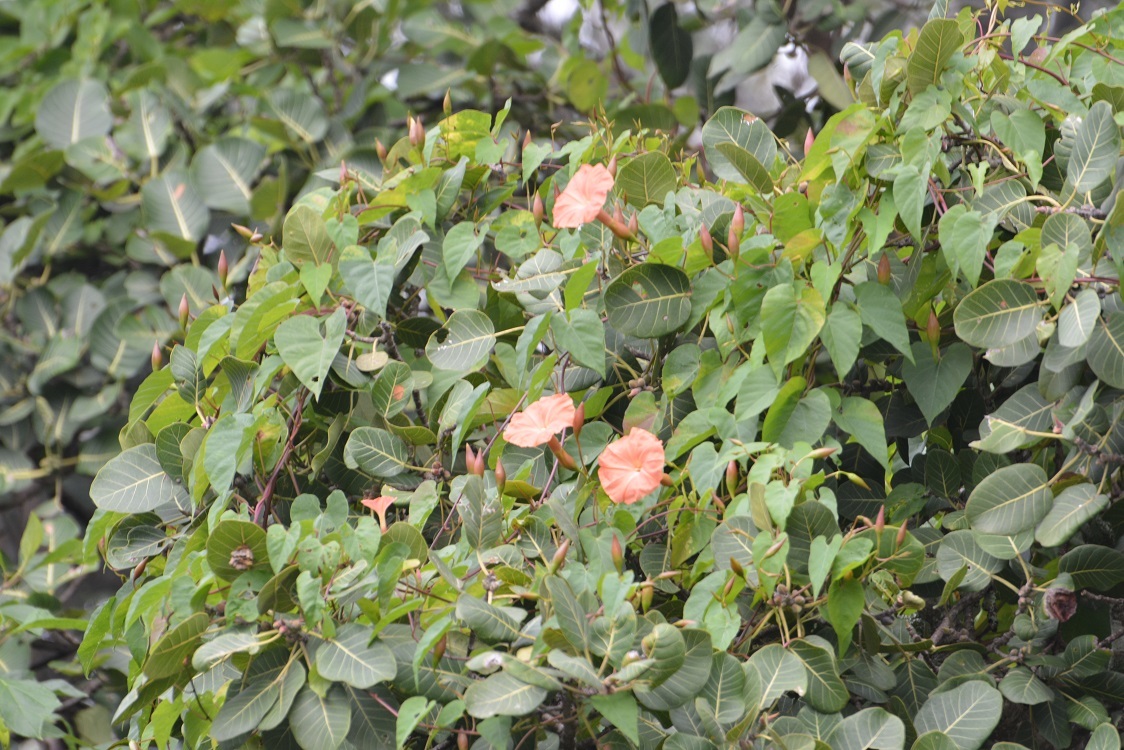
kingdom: Plantae
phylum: Tracheophyta
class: Magnoliopsida
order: Solanales
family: Convolvulaceae
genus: Operculina
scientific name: Operculina pteripes
